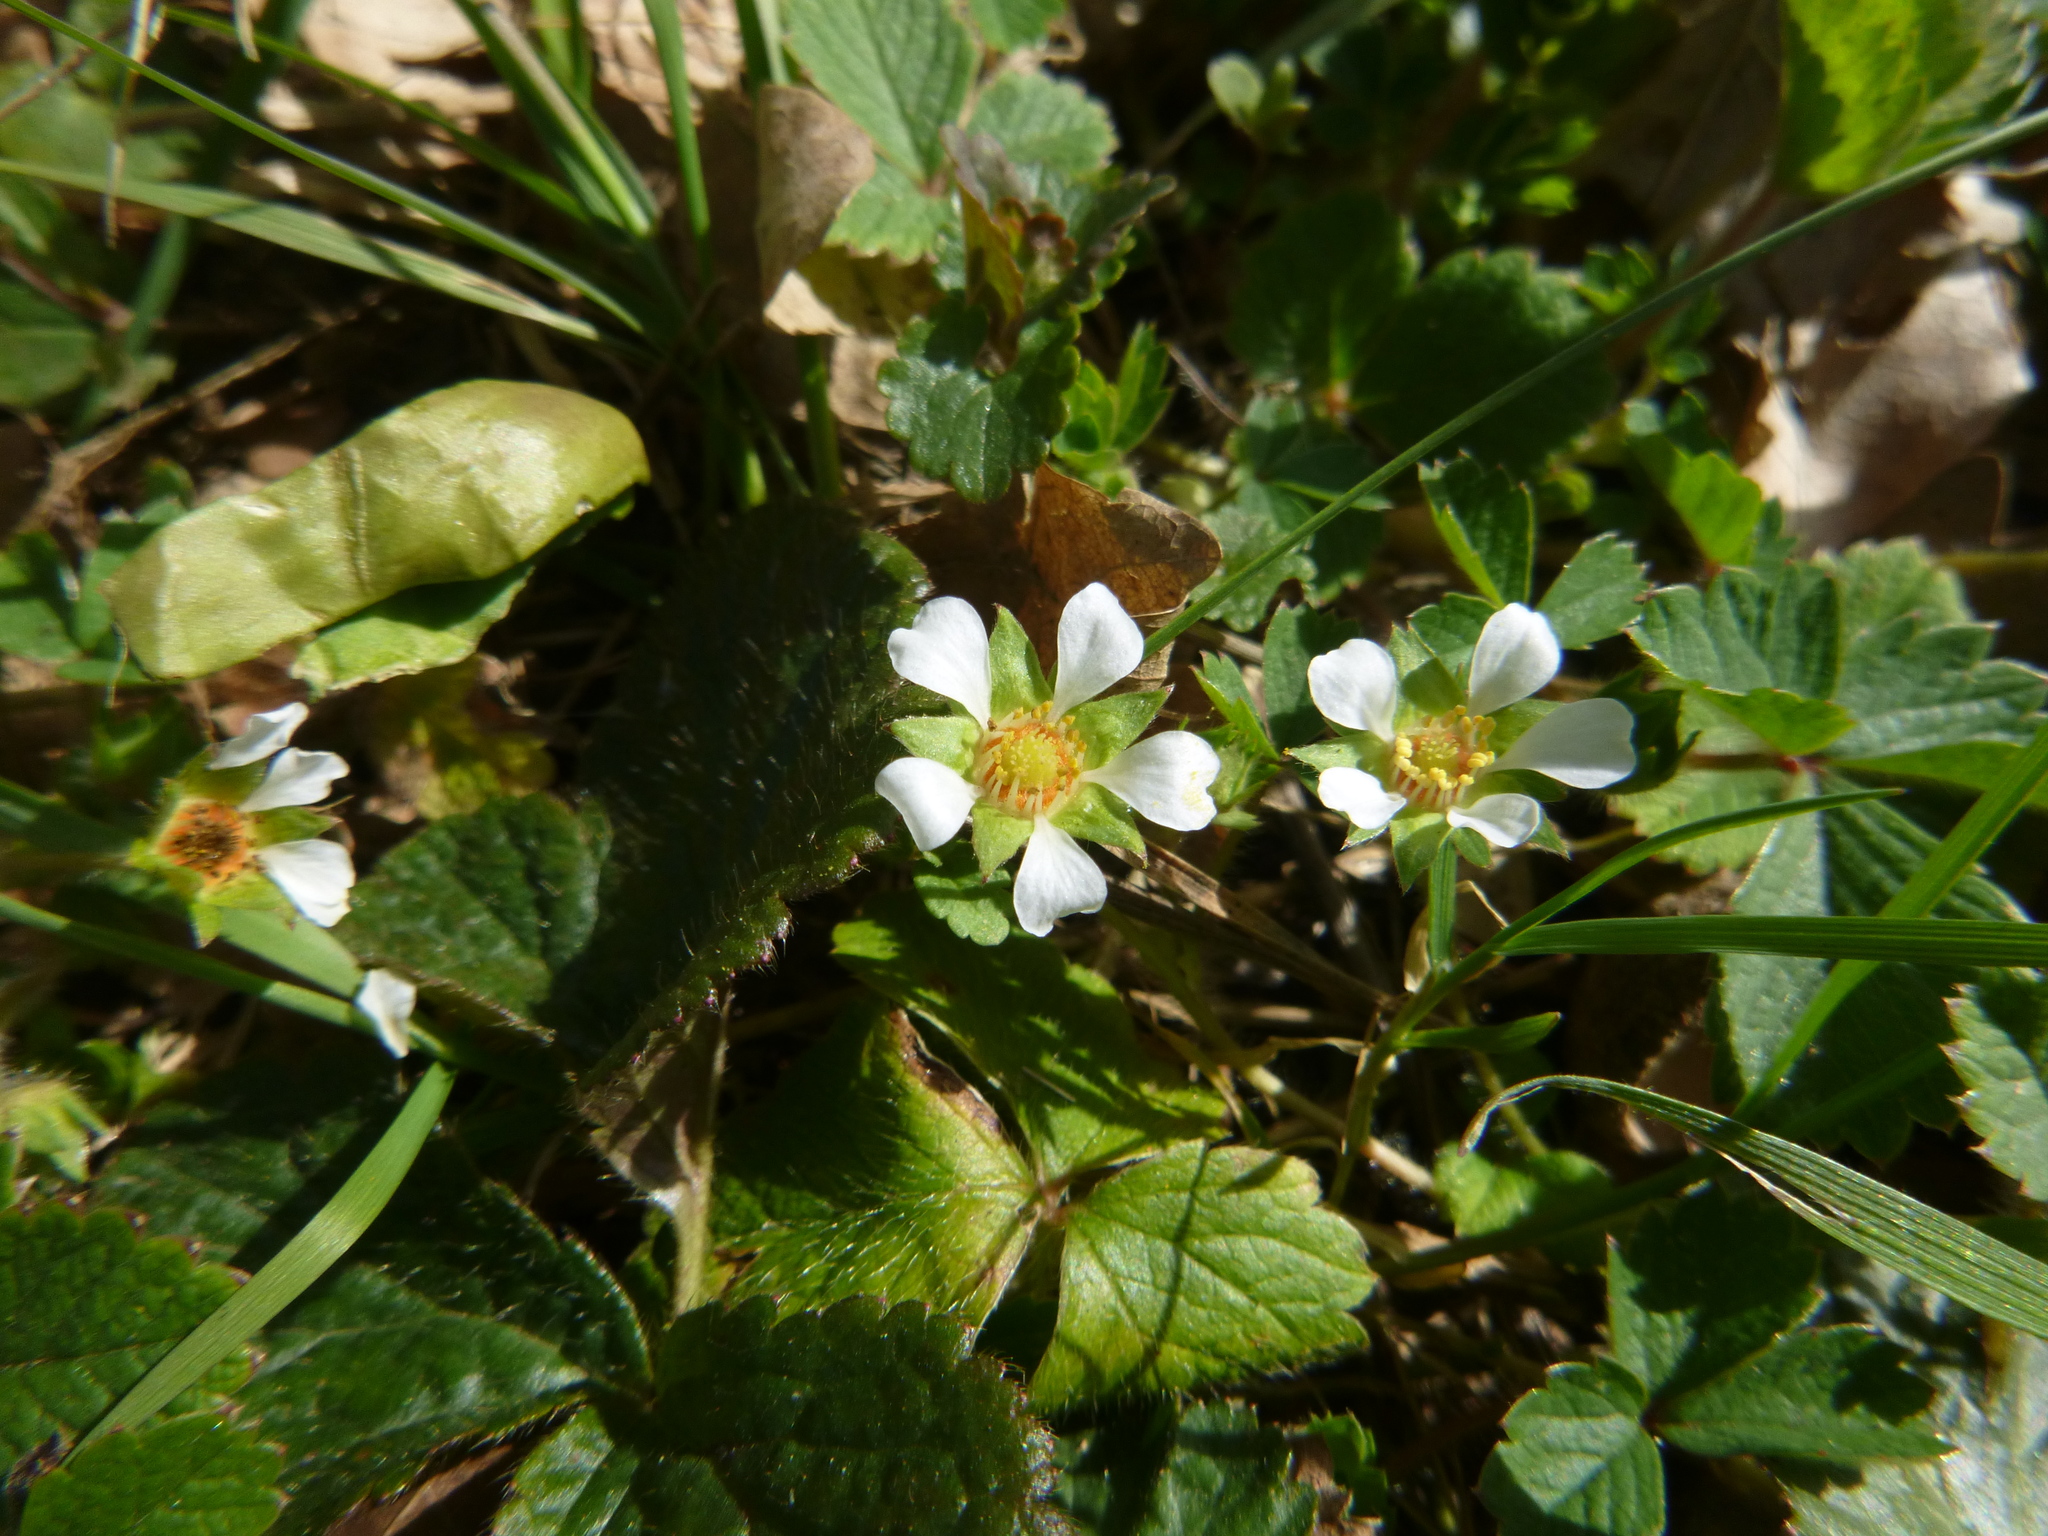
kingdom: Plantae
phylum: Tracheophyta
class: Magnoliopsida
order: Rosales
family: Rosaceae
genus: Potentilla
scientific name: Potentilla sterilis
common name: Barren strawberry
